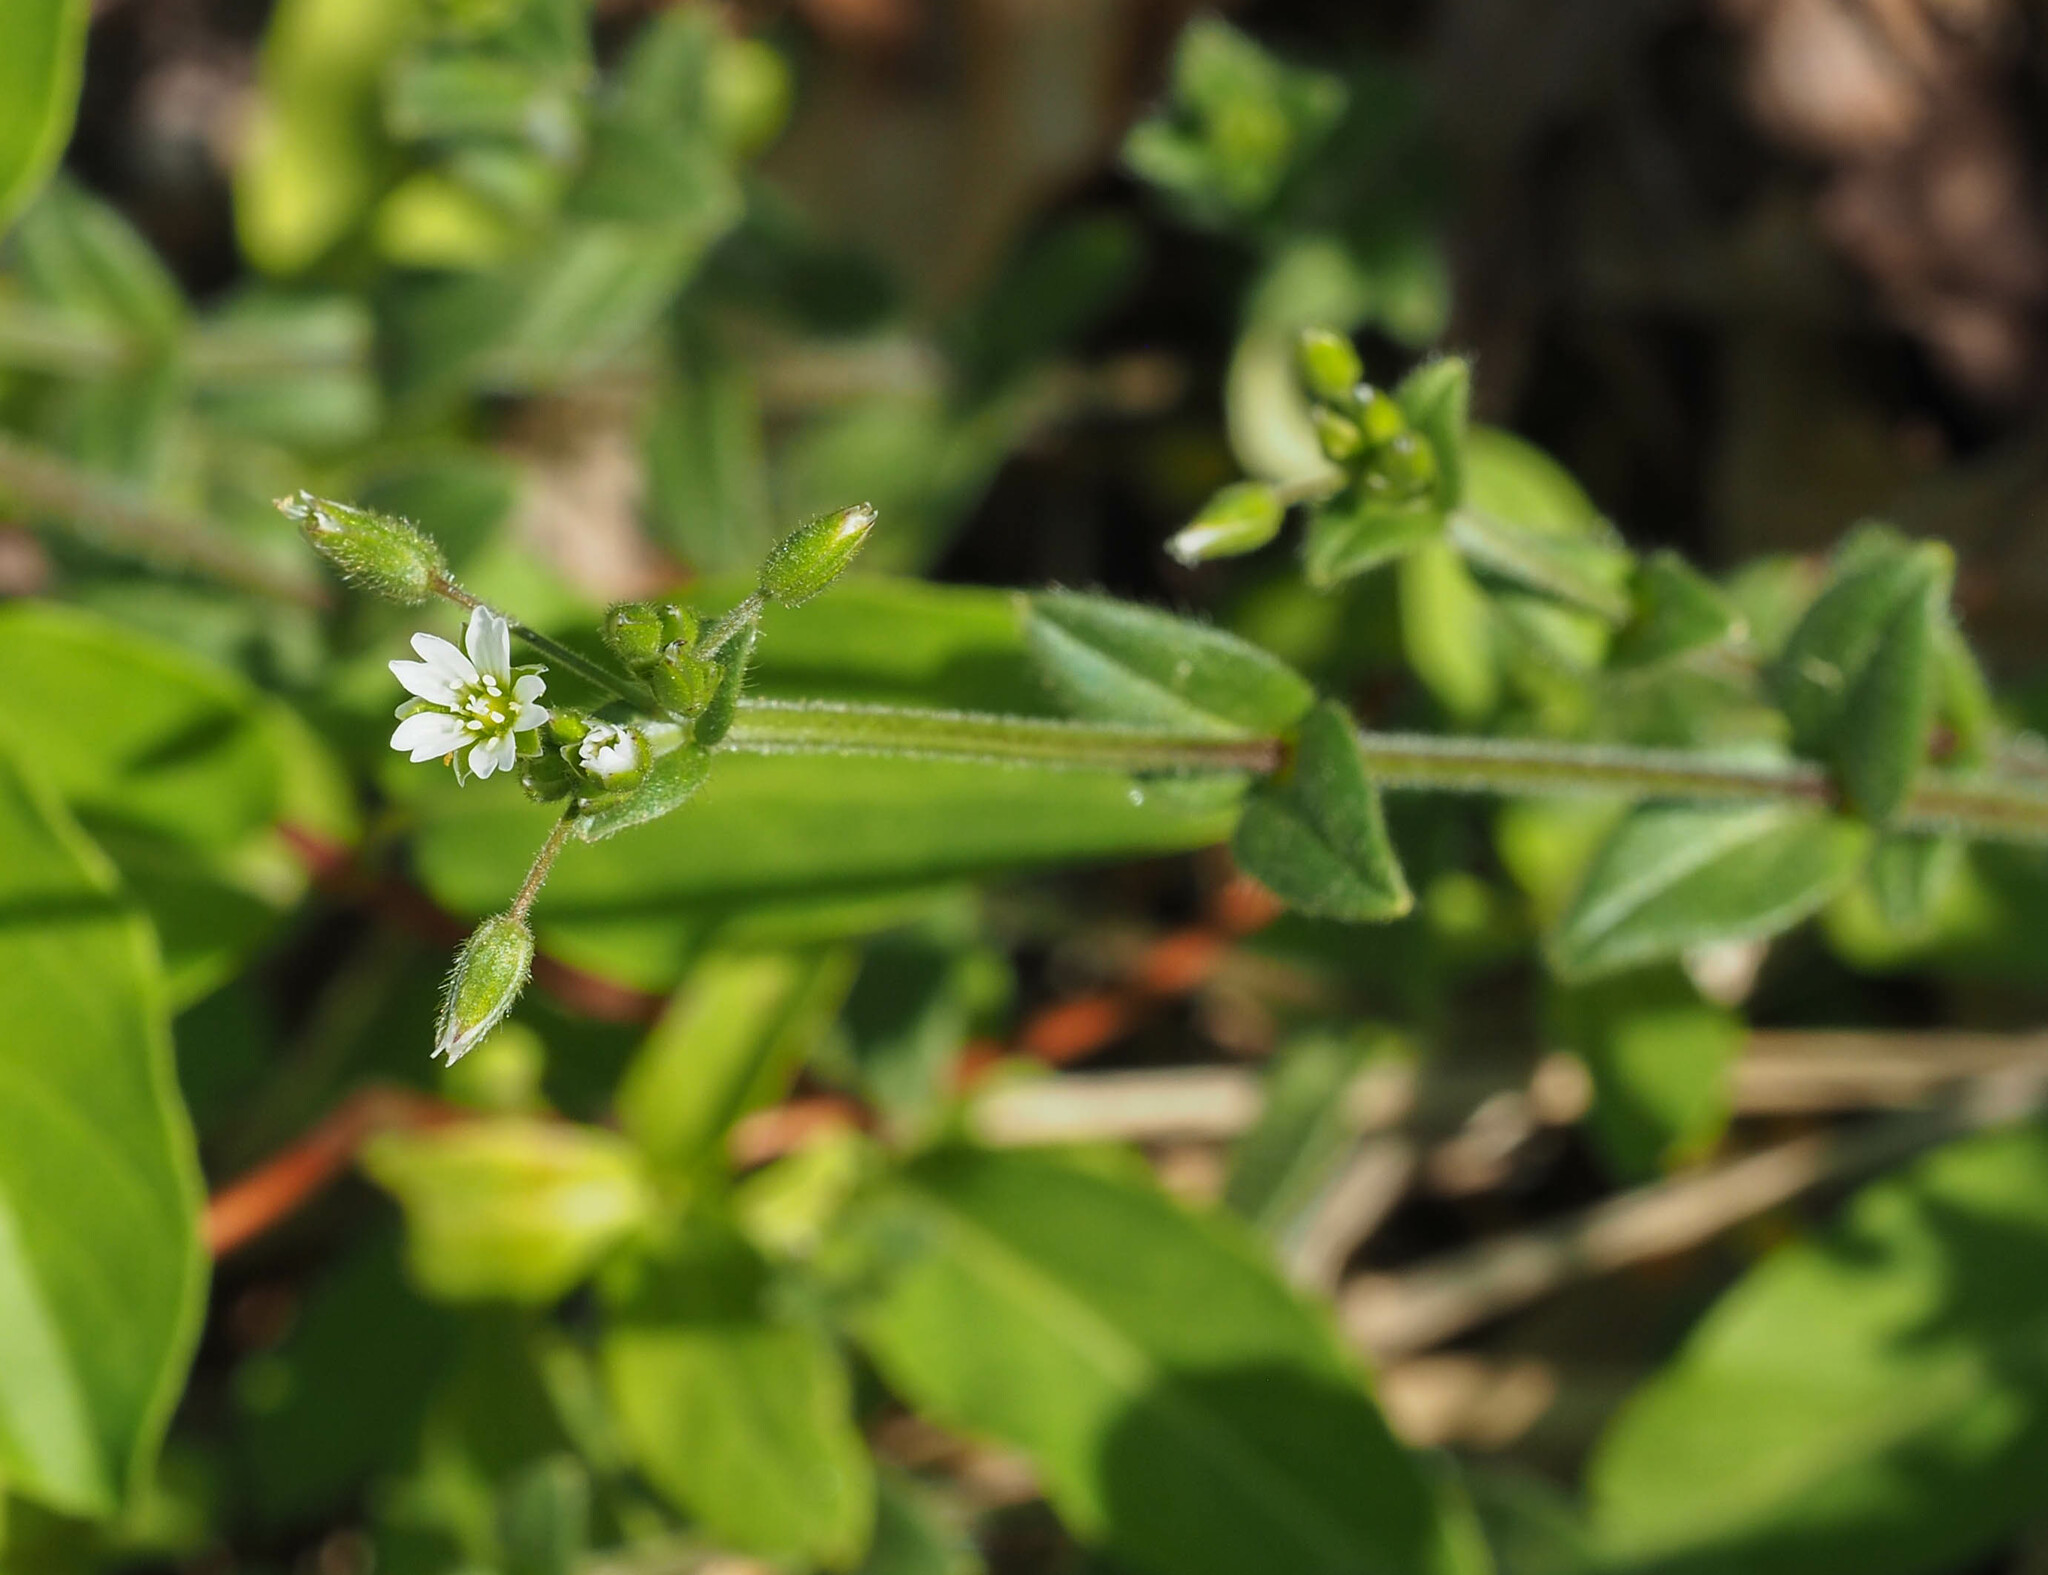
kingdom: Plantae
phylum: Tracheophyta
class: Magnoliopsida
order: Caryophyllales
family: Caryophyllaceae
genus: Cerastium
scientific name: Cerastium fontanum
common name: Common mouse-ear
